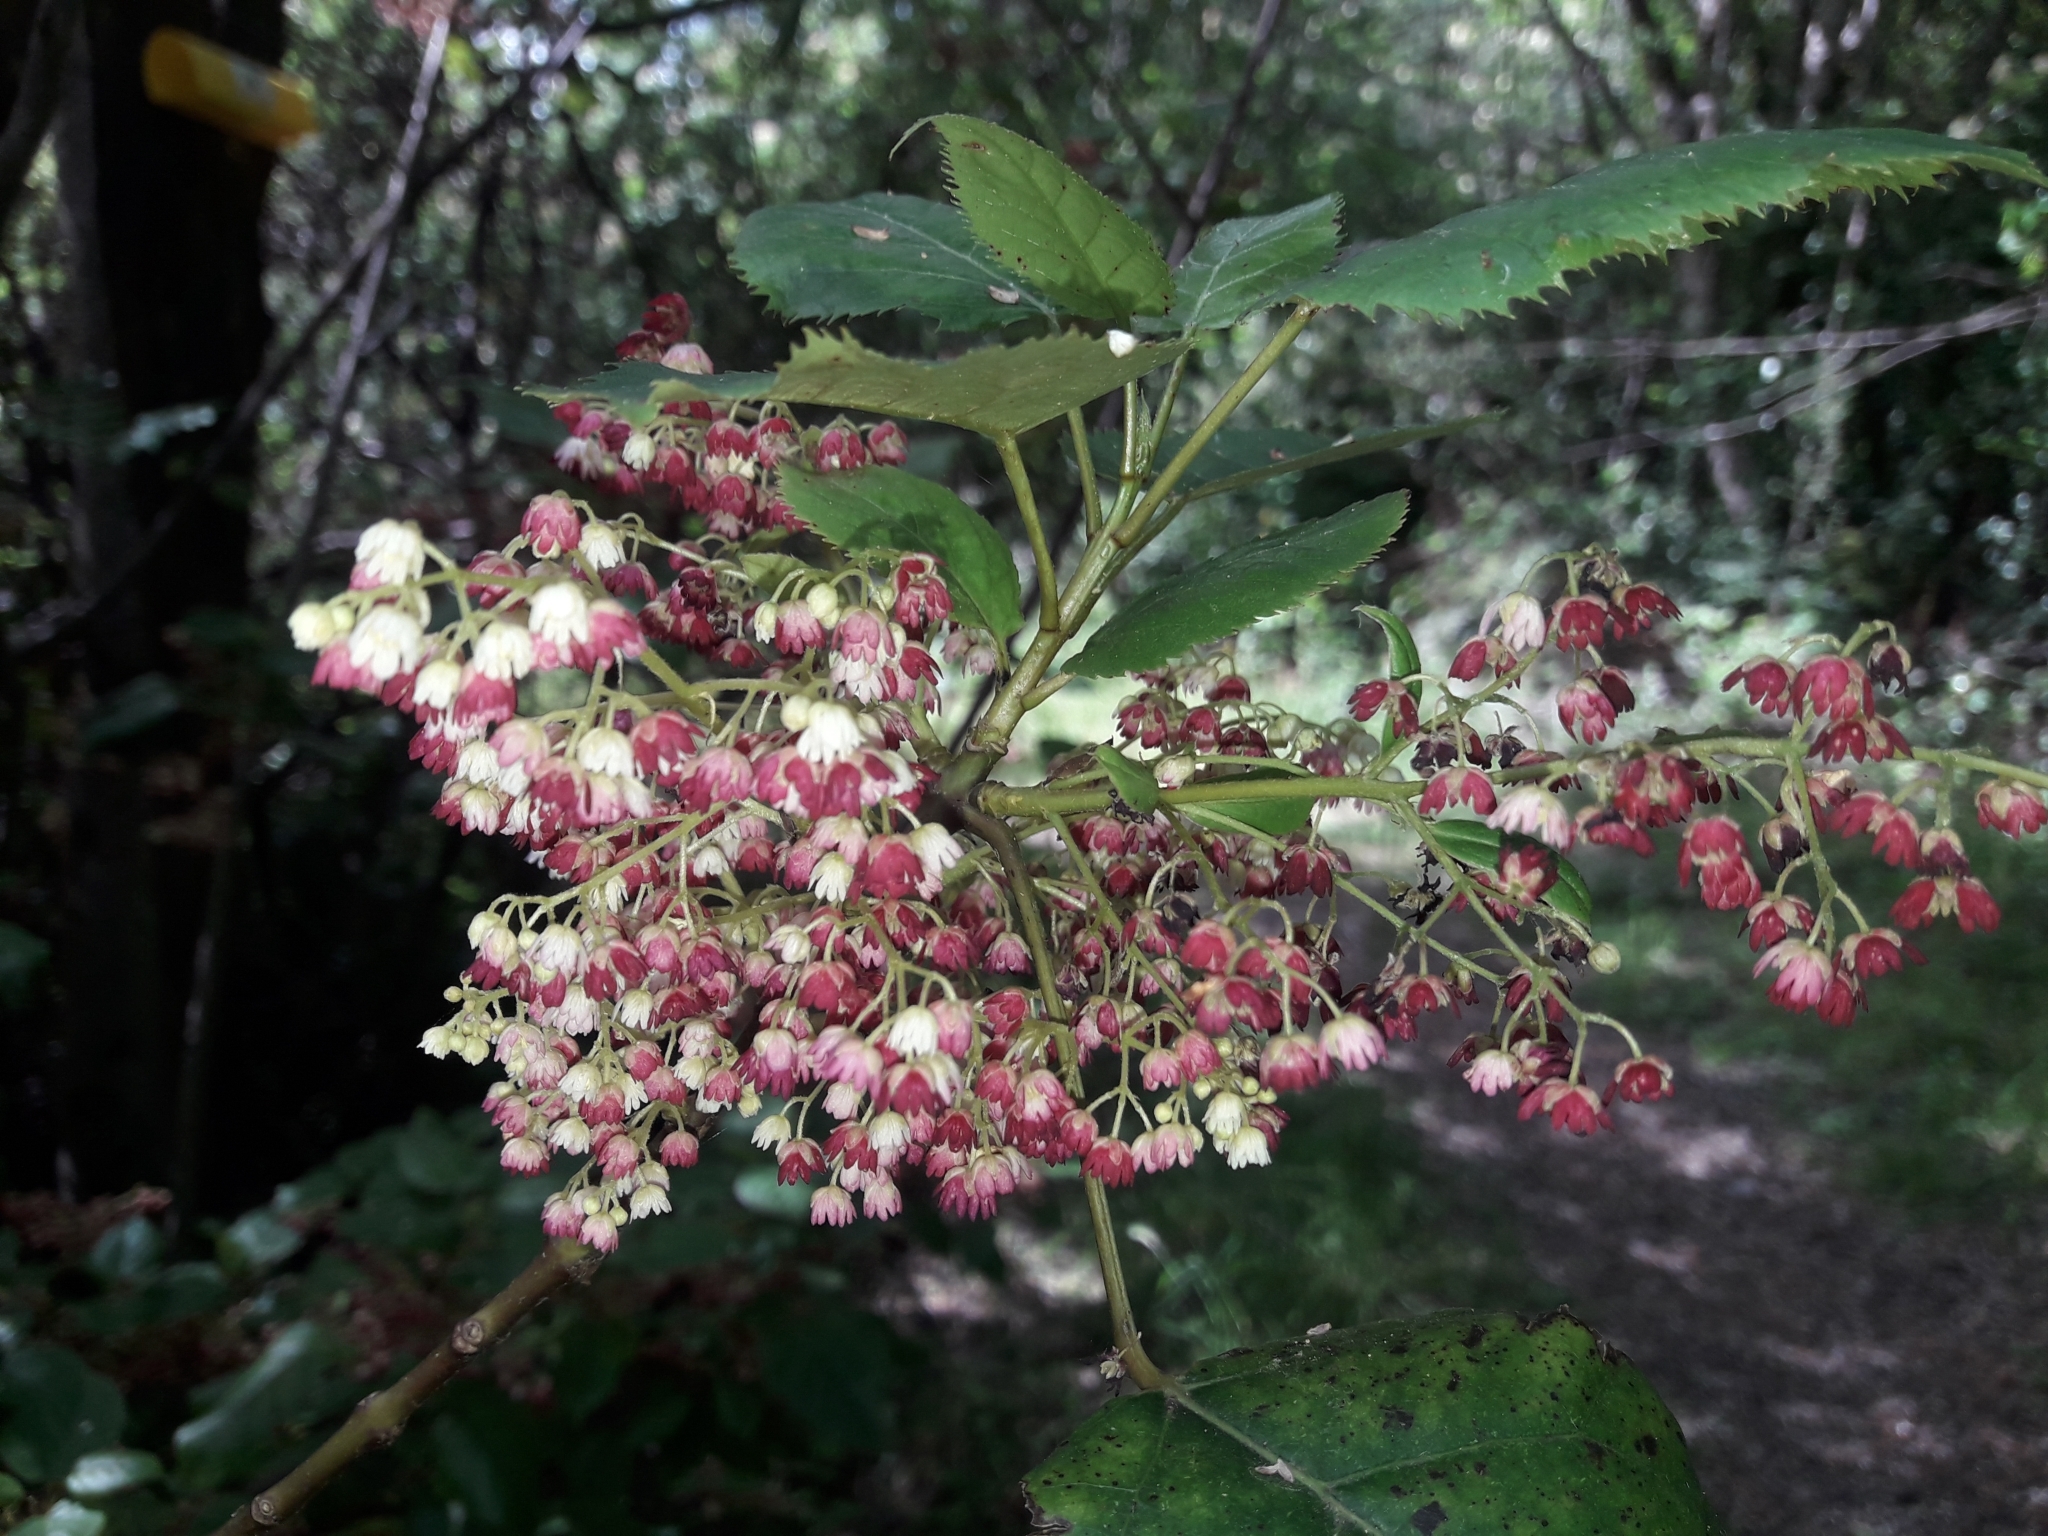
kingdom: Plantae
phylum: Tracheophyta
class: Magnoliopsida
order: Oxalidales
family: Elaeocarpaceae
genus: Aristotelia
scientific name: Aristotelia serrata
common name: New zealand wineberry
